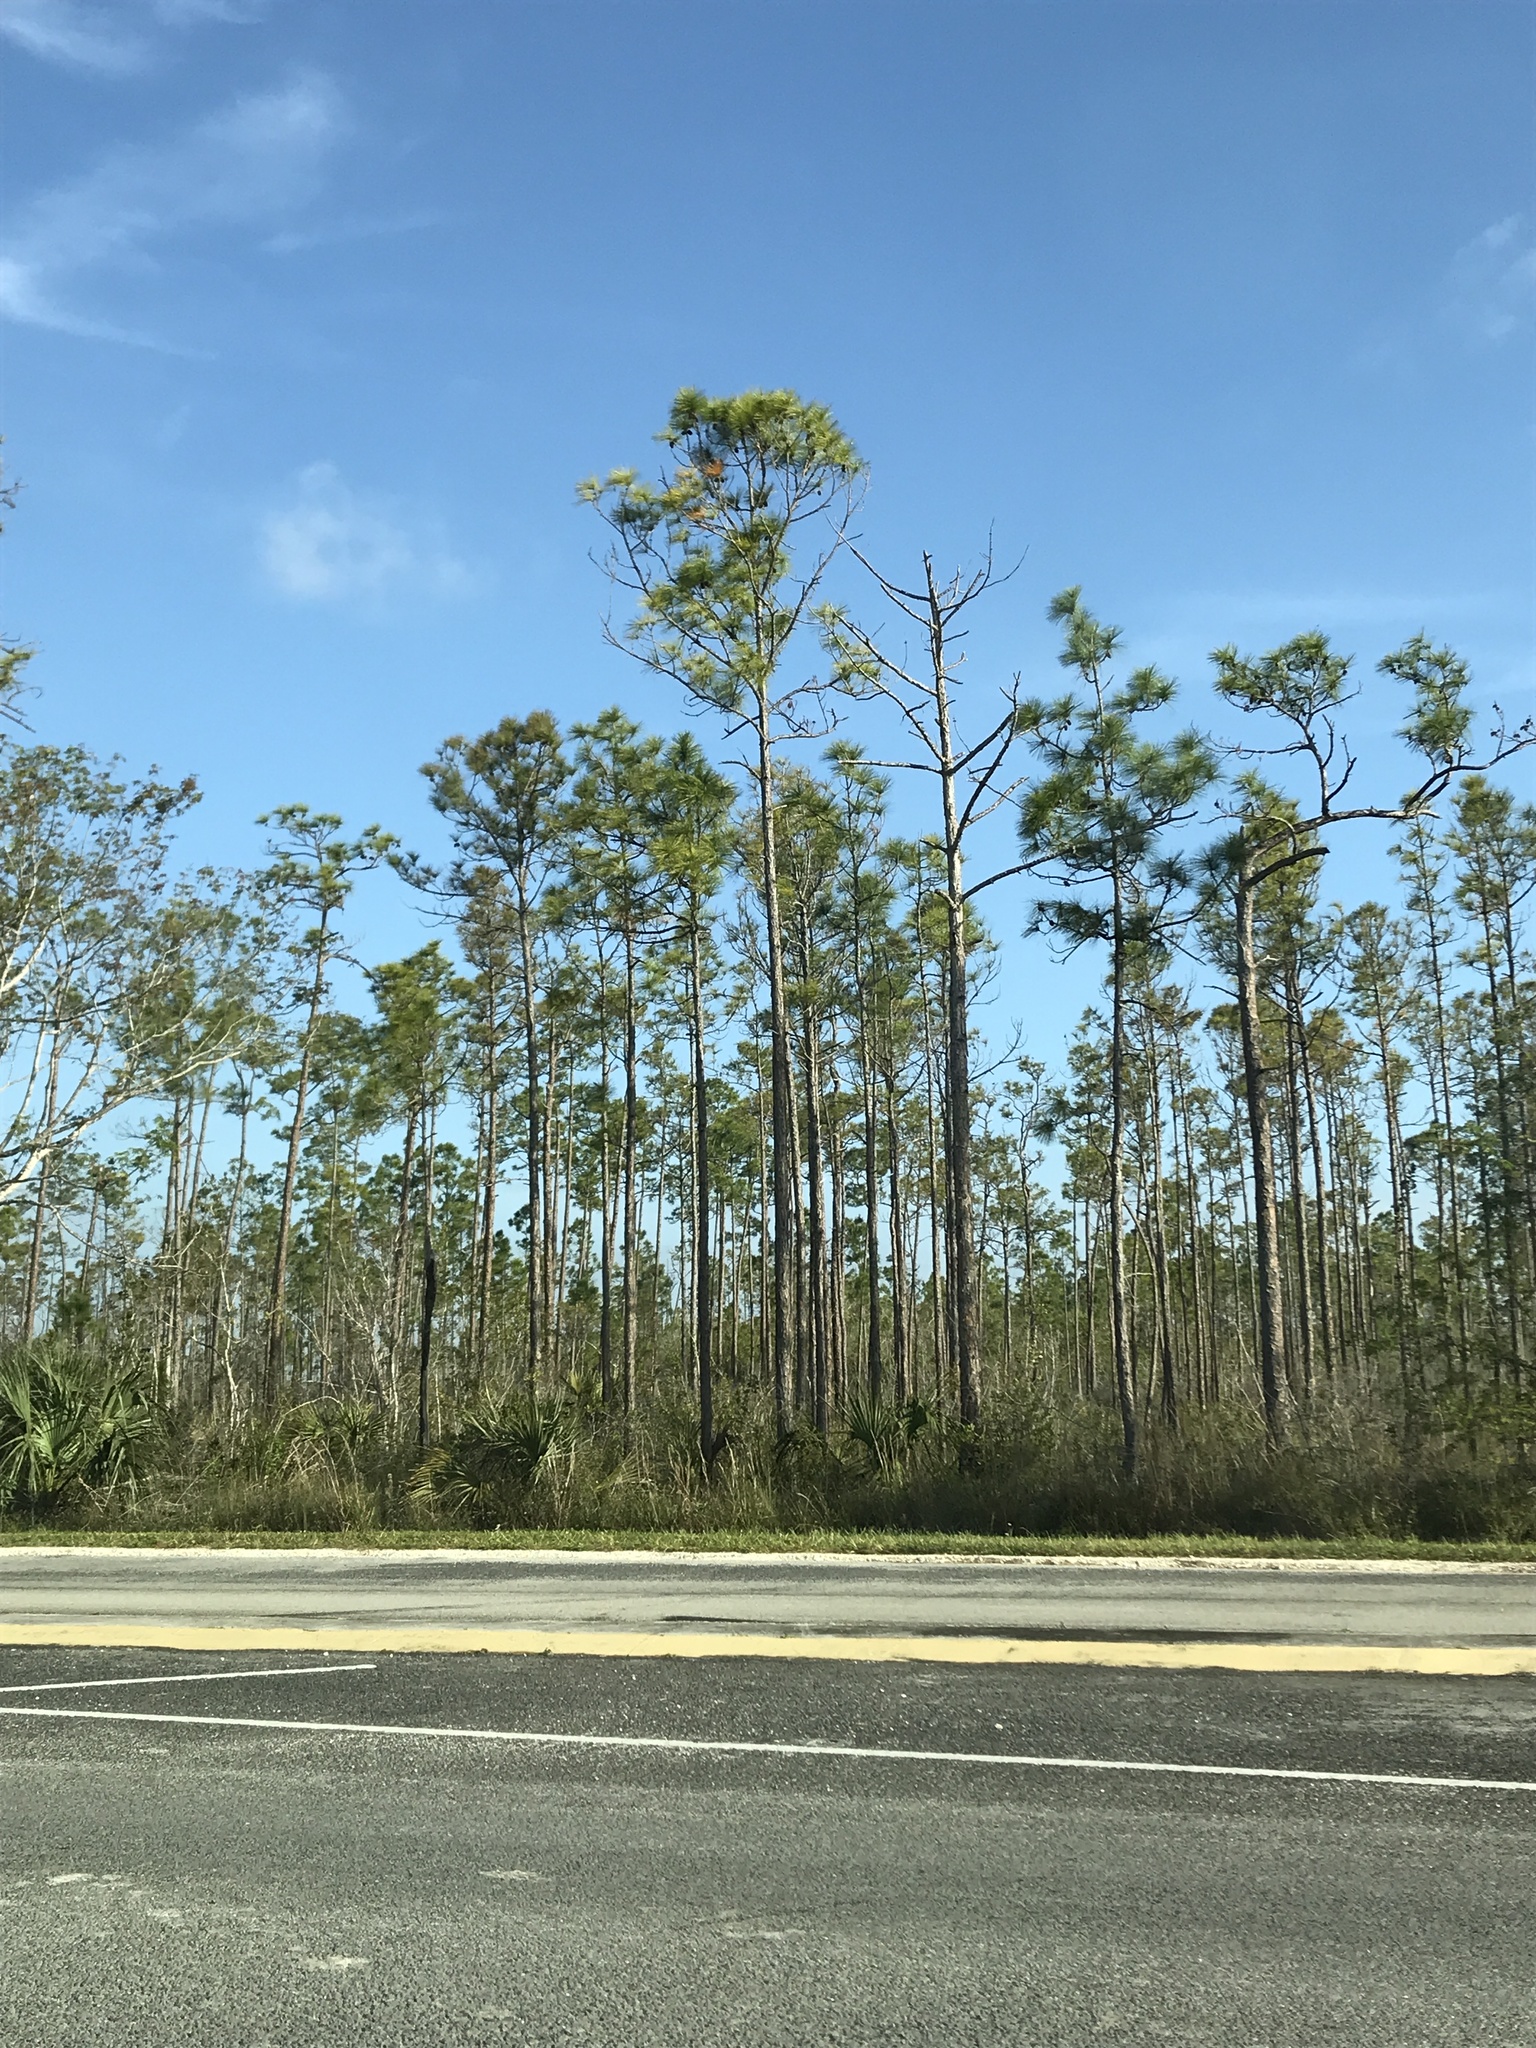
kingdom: Plantae
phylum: Tracheophyta
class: Pinopsida
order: Pinales
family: Pinaceae
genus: Pinus
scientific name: Pinus elliottii
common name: Slash pine
